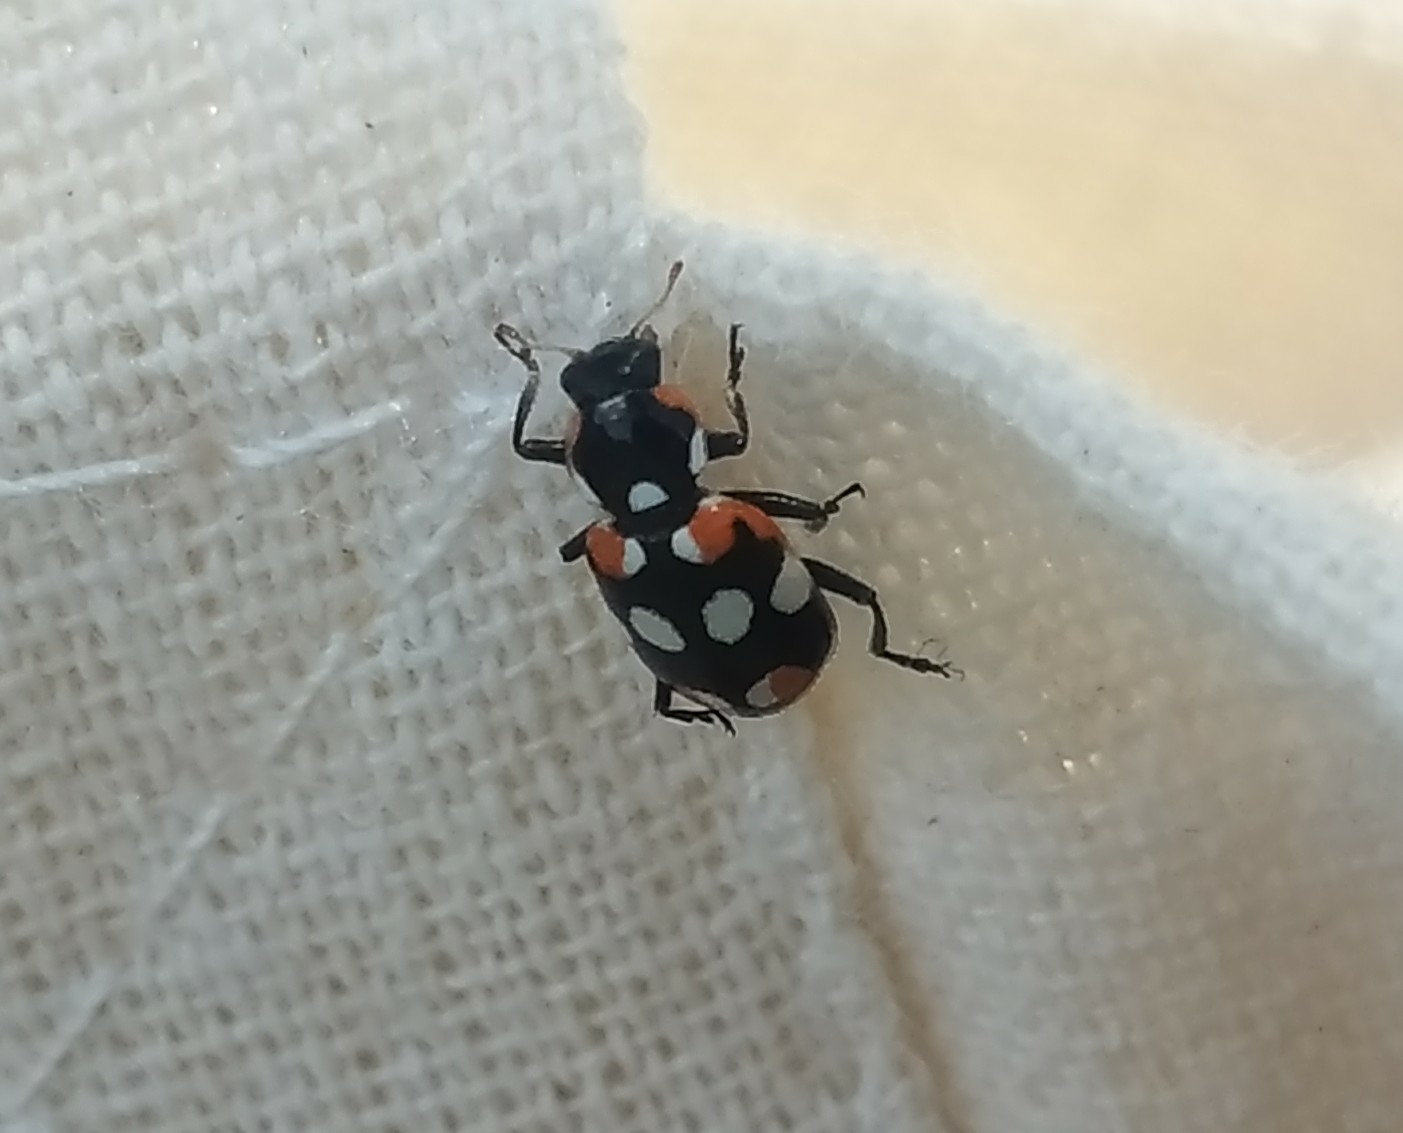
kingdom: Animalia
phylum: Arthropoda
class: Insecta
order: Coleoptera
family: Coccinellidae
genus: Eriopis
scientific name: Eriopis connexa
